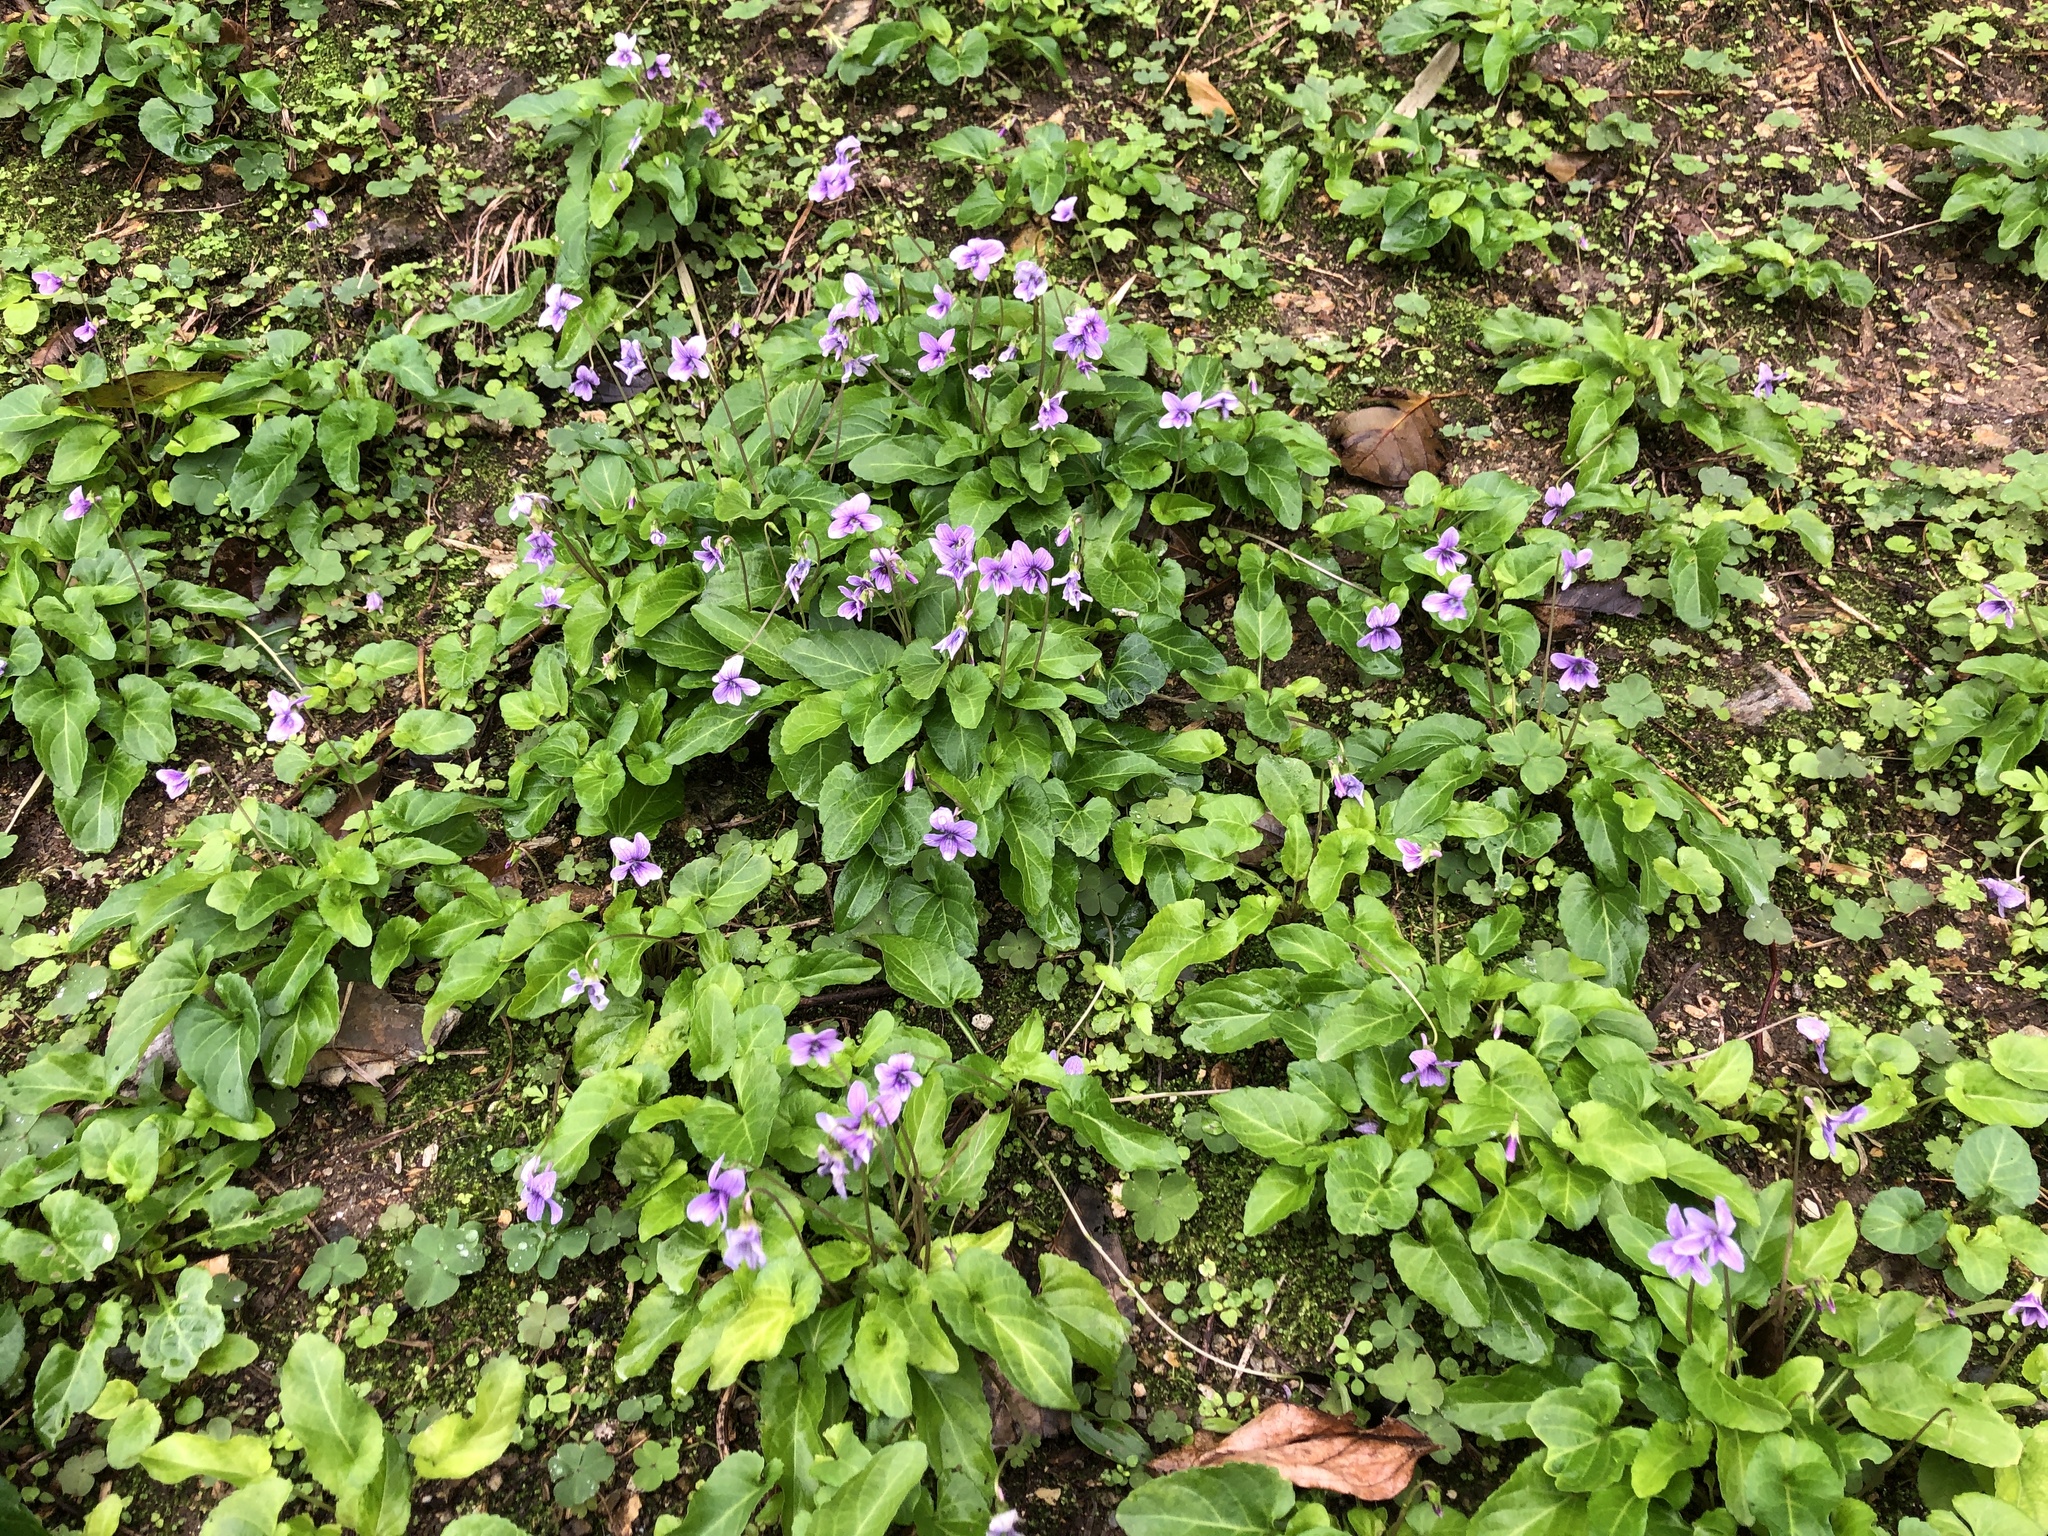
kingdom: Plantae
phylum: Tracheophyta
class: Magnoliopsida
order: Malpighiales
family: Violaceae
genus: Viola
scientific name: Viola philippica
